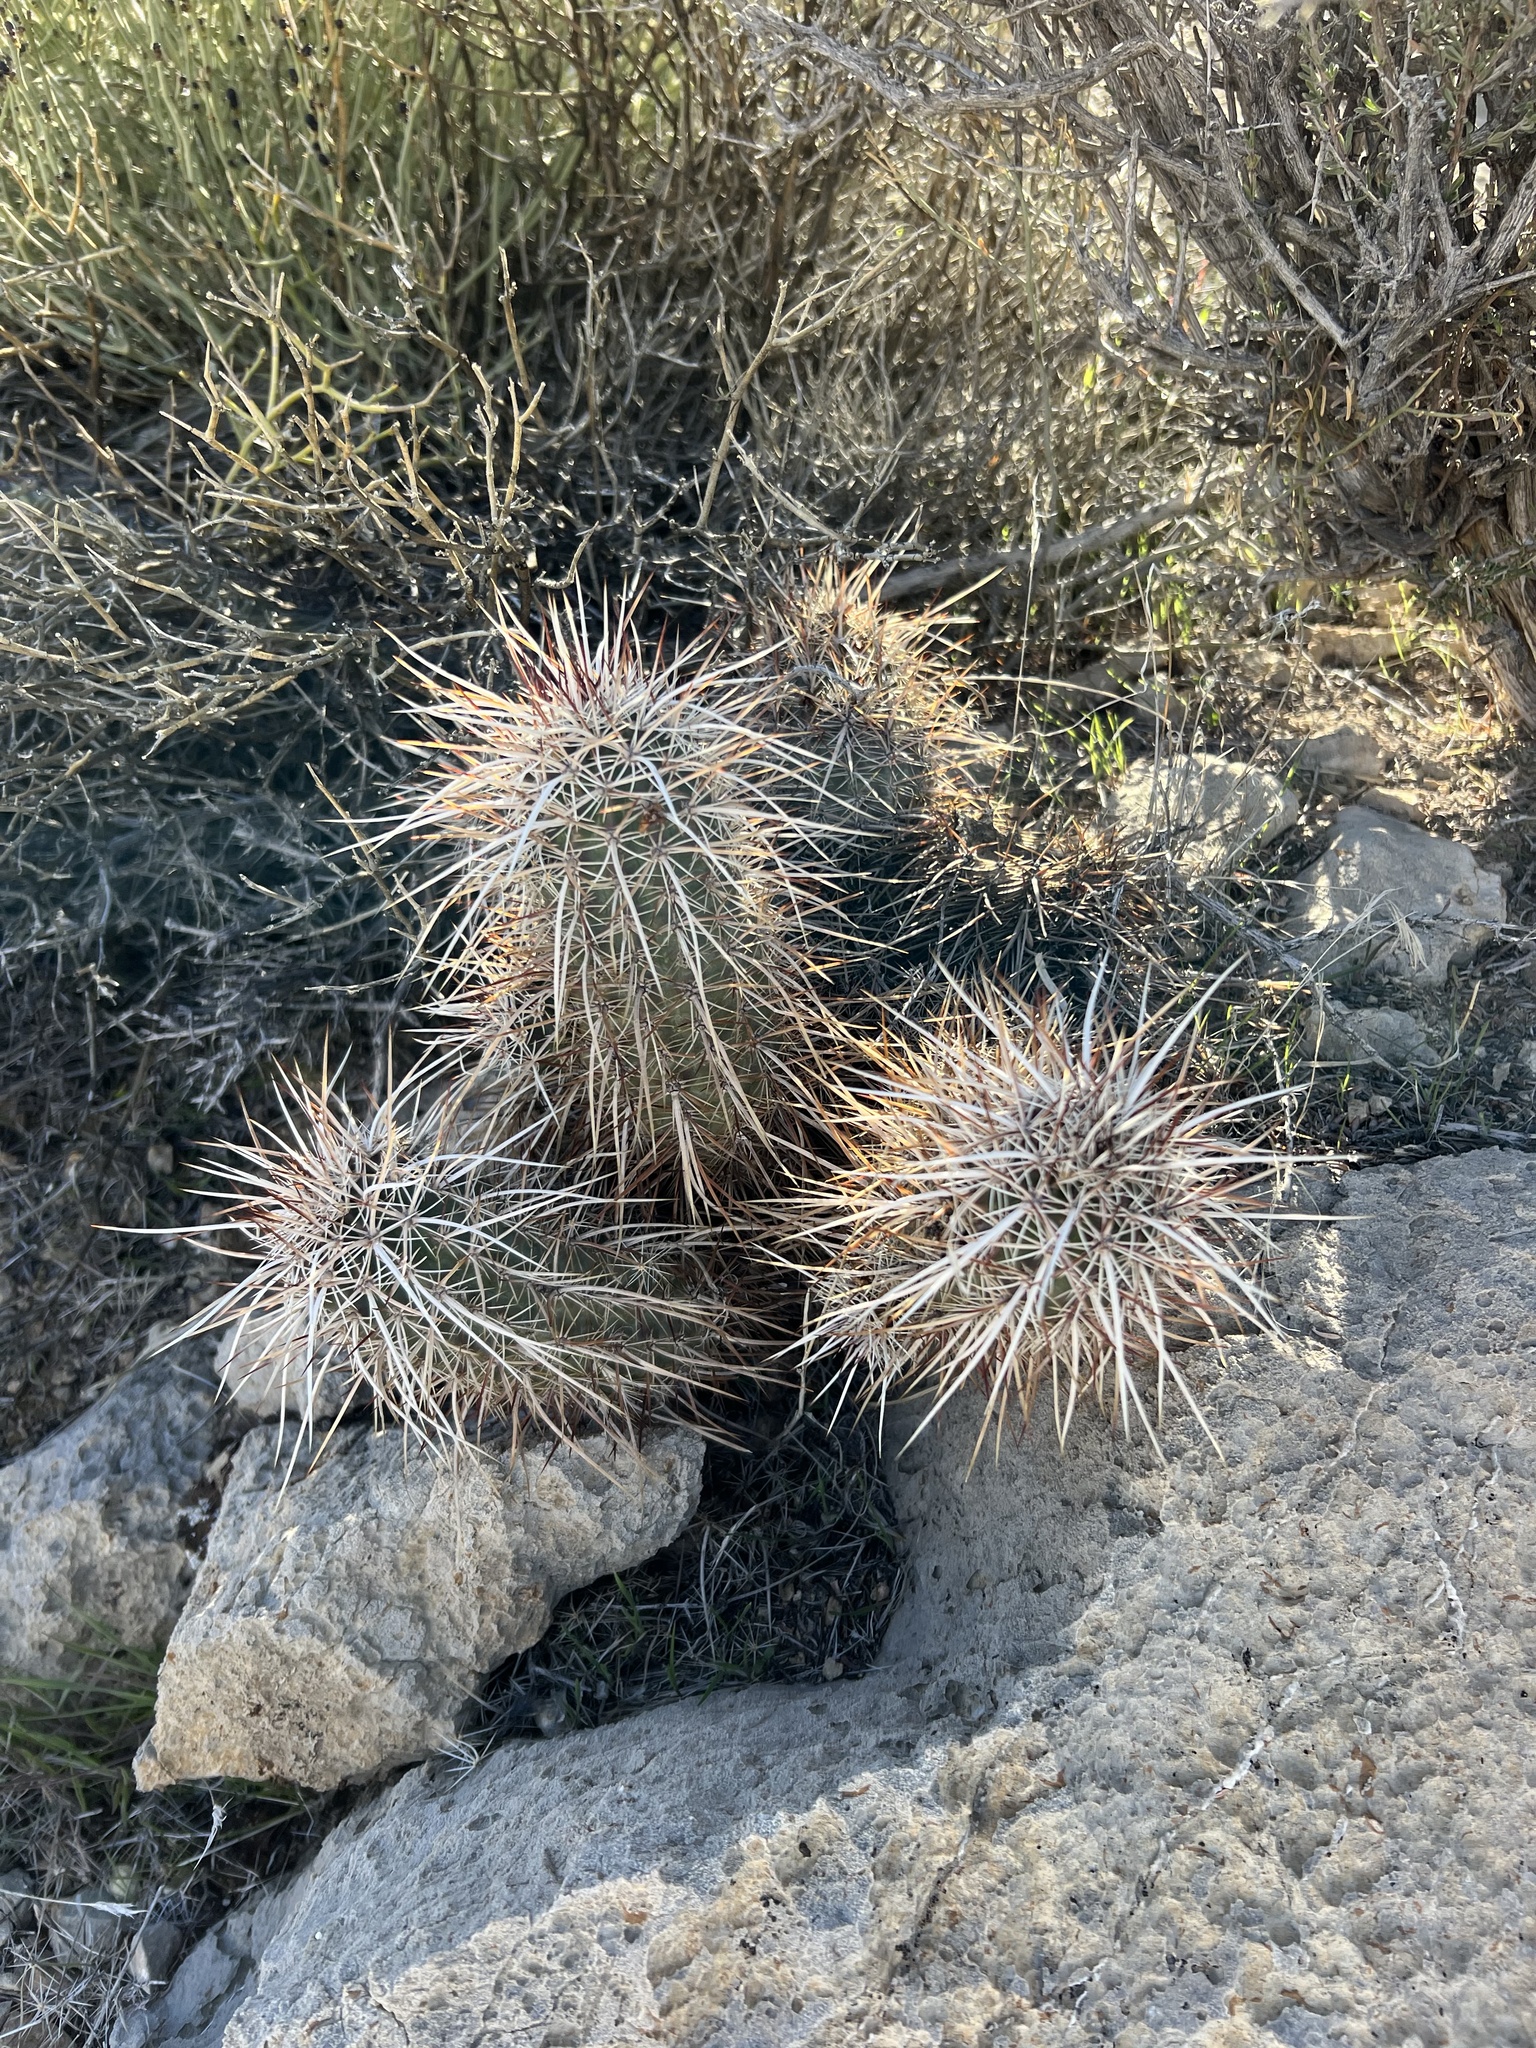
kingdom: Plantae
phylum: Tracheophyta
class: Magnoliopsida
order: Caryophyllales
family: Cactaceae
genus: Echinocereus
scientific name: Echinocereus engelmannii
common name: Engelmann's hedgehog cactus
